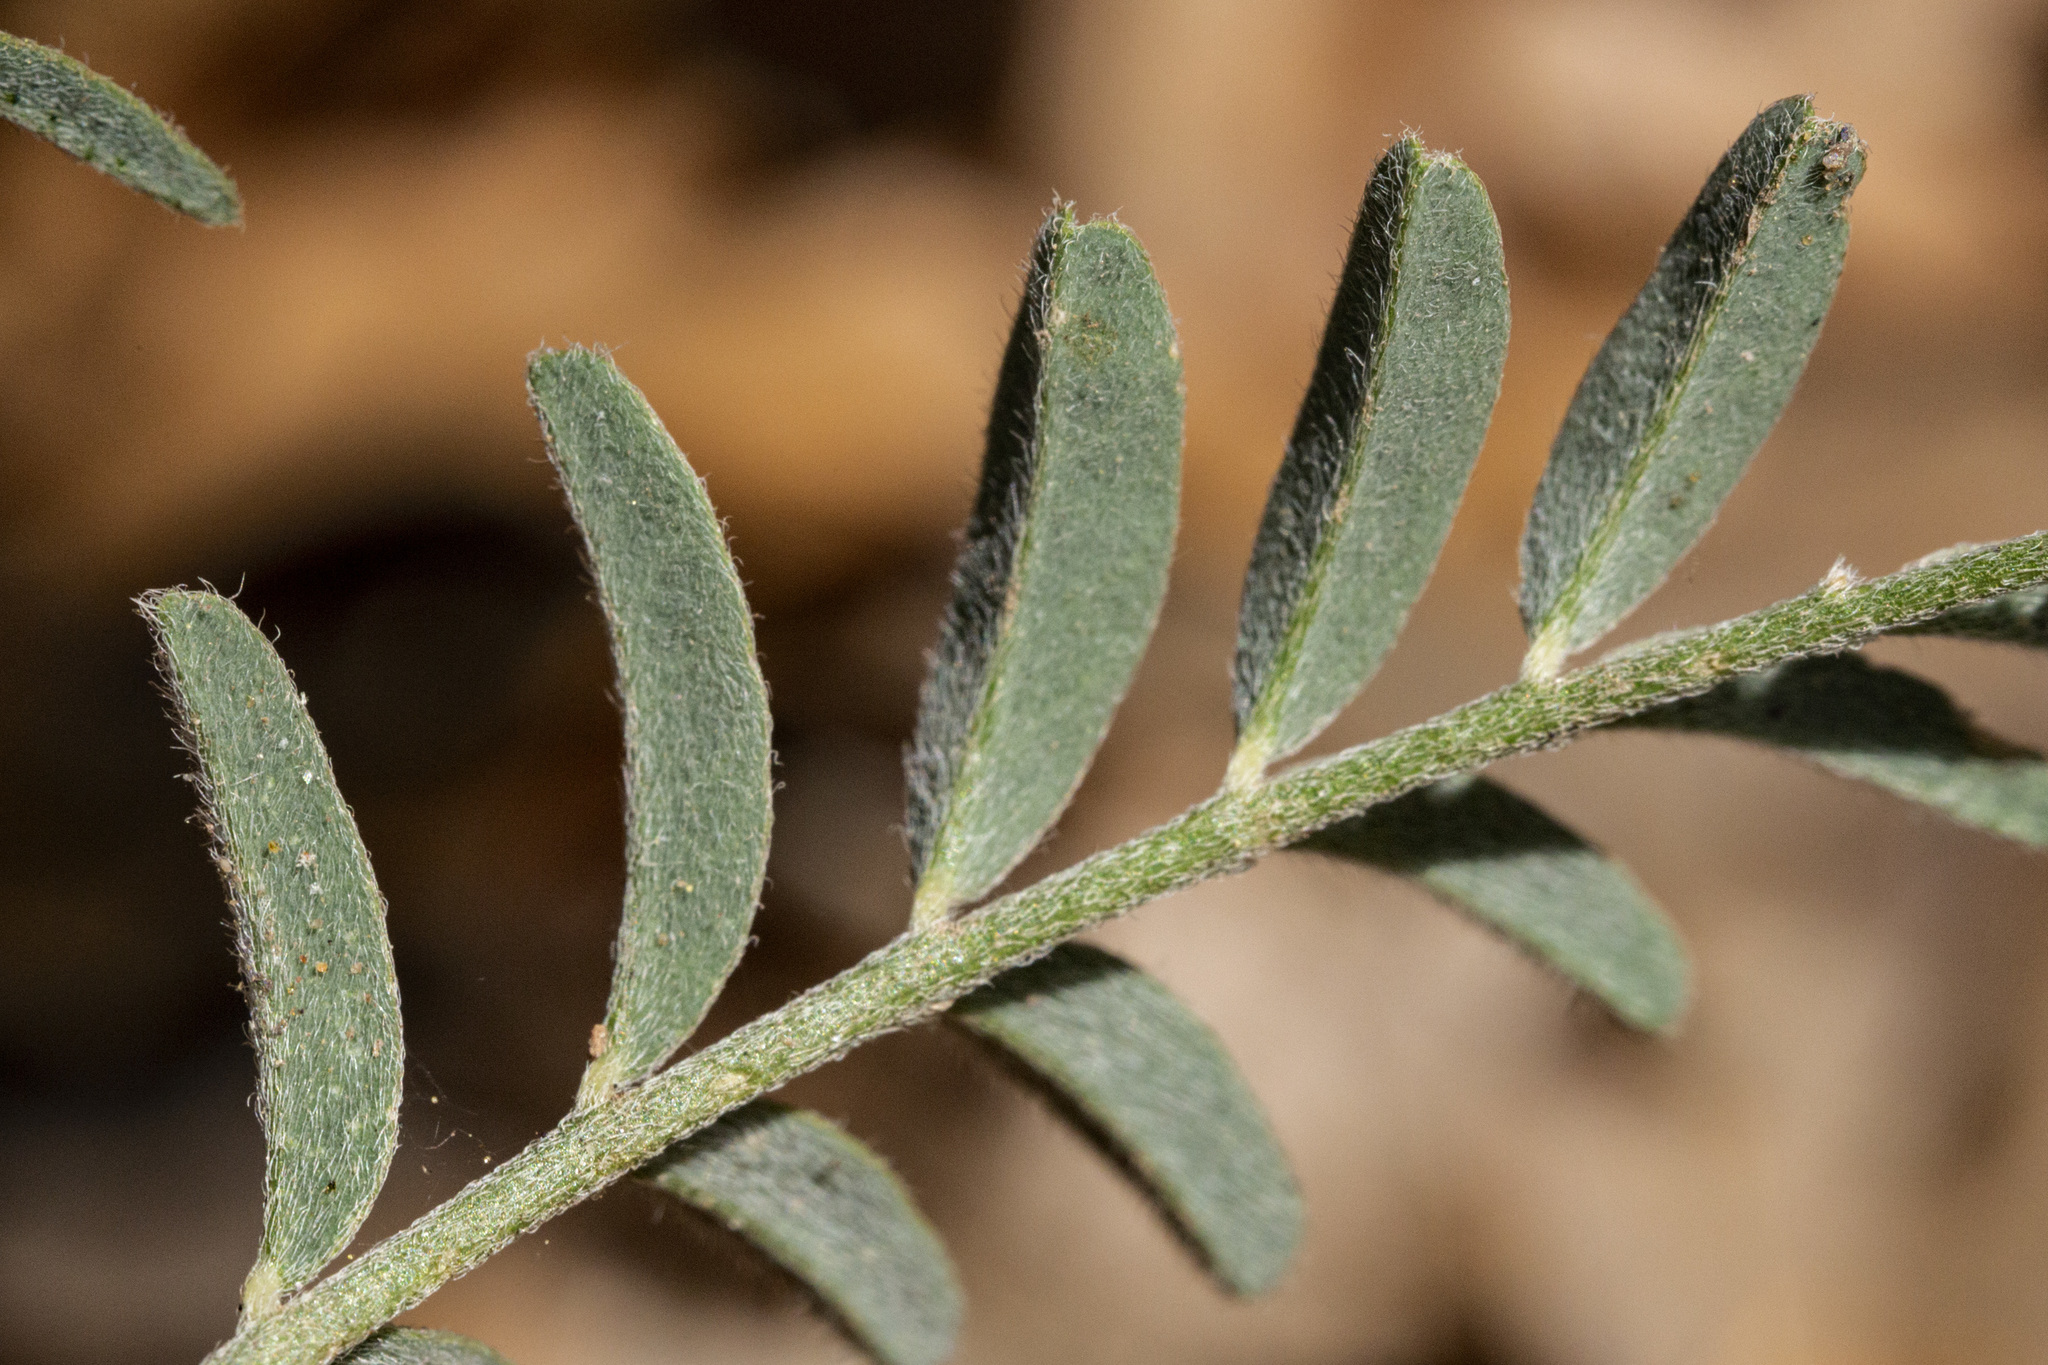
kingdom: Plantae
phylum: Tracheophyta
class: Magnoliopsida
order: Fabales
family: Fabaceae
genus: Astragalus
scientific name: Astragalus puniceus
